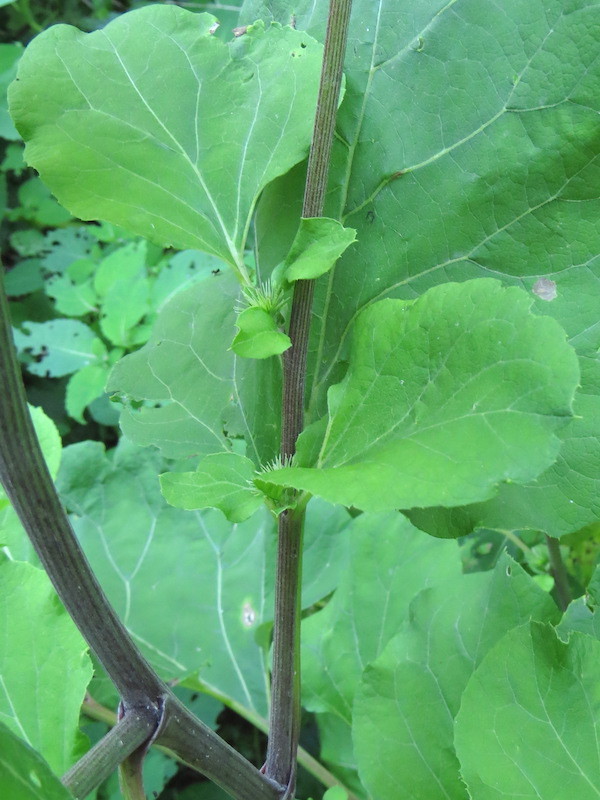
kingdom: Plantae
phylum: Tracheophyta
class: Magnoliopsida
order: Asterales
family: Asteraceae
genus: Arctium
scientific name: Arctium lappa
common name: Greater burdock
